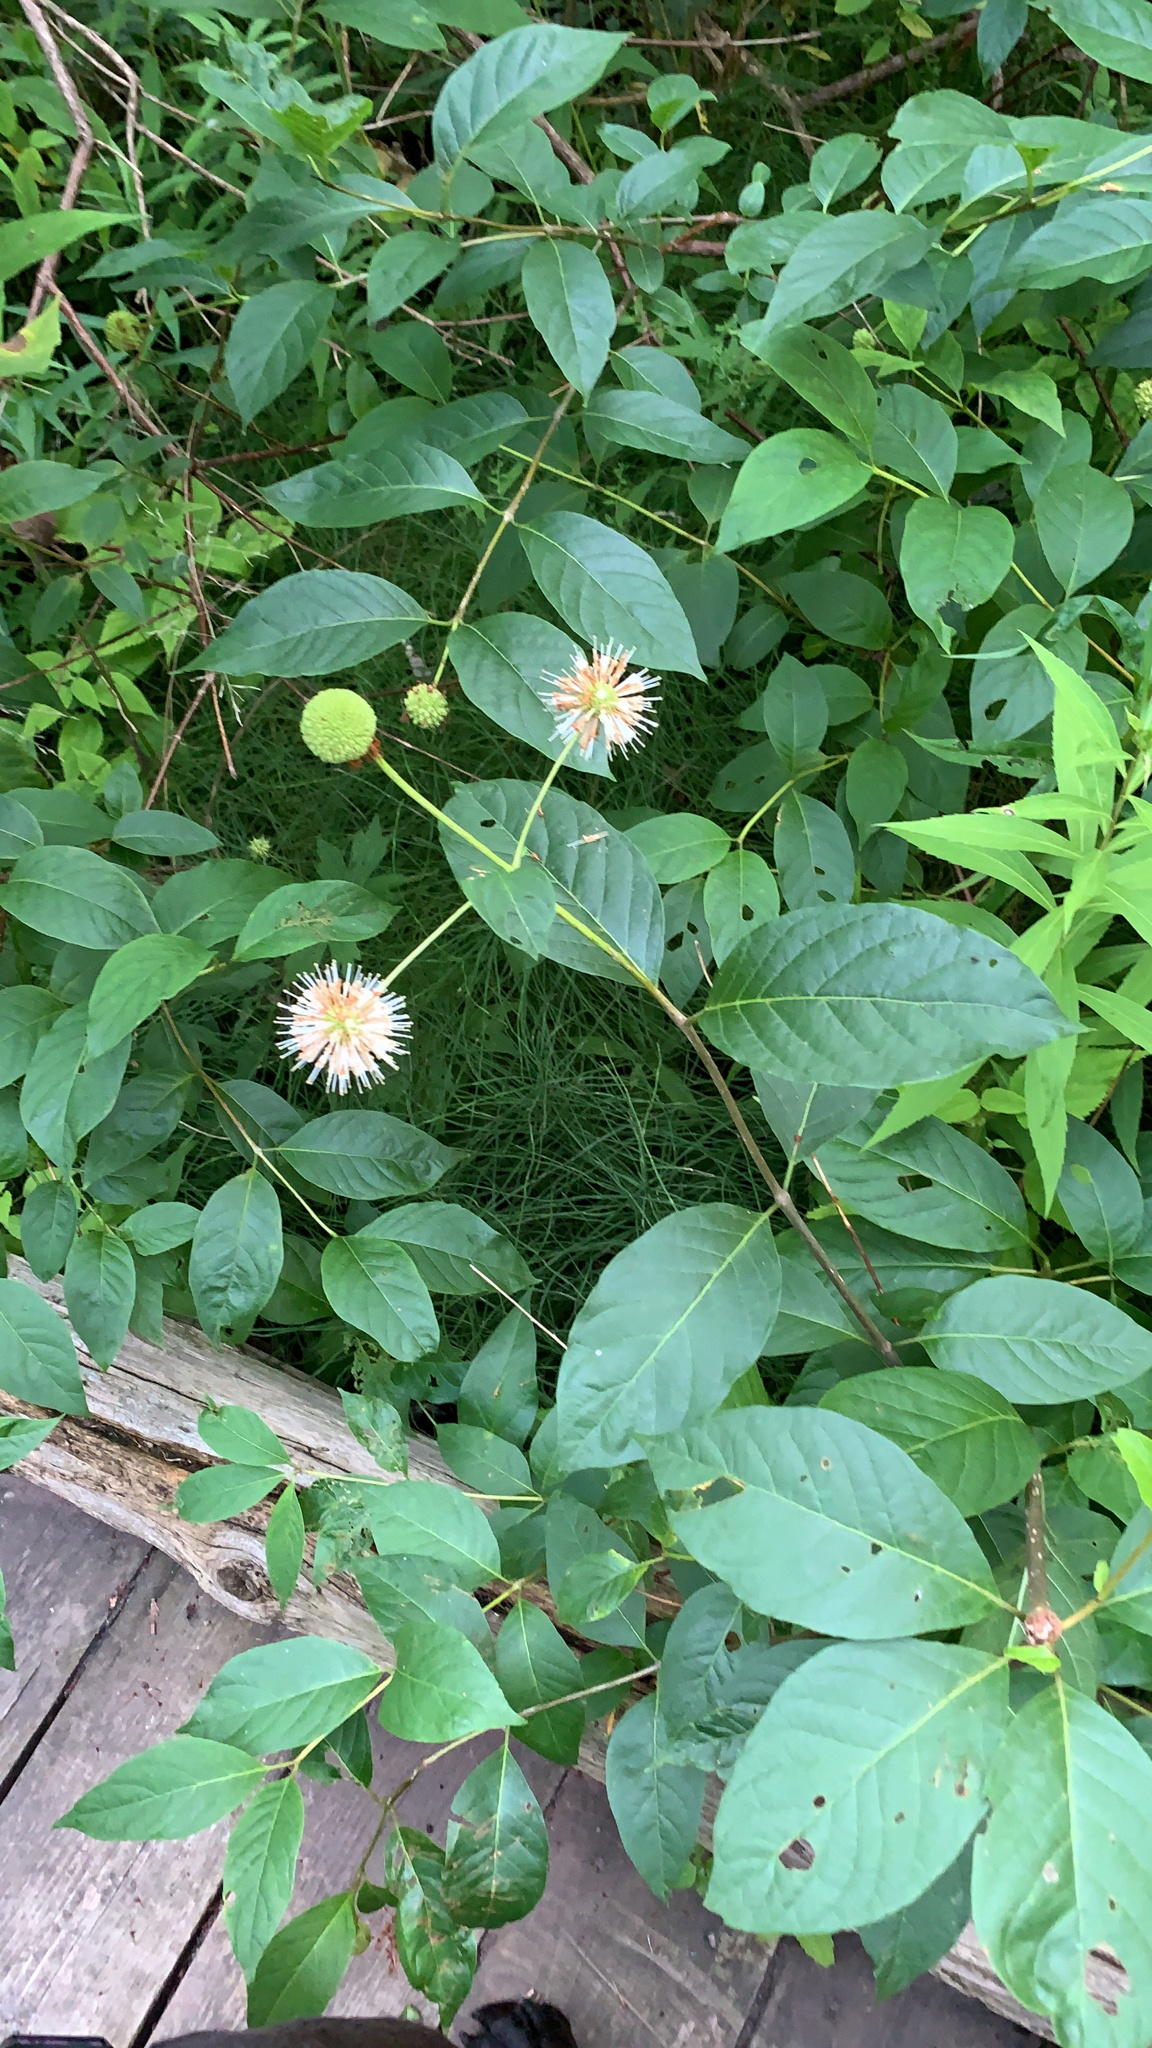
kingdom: Plantae
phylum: Tracheophyta
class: Magnoliopsida
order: Gentianales
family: Rubiaceae
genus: Cephalanthus
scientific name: Cephalanthus occidentalis
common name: Button-willow
